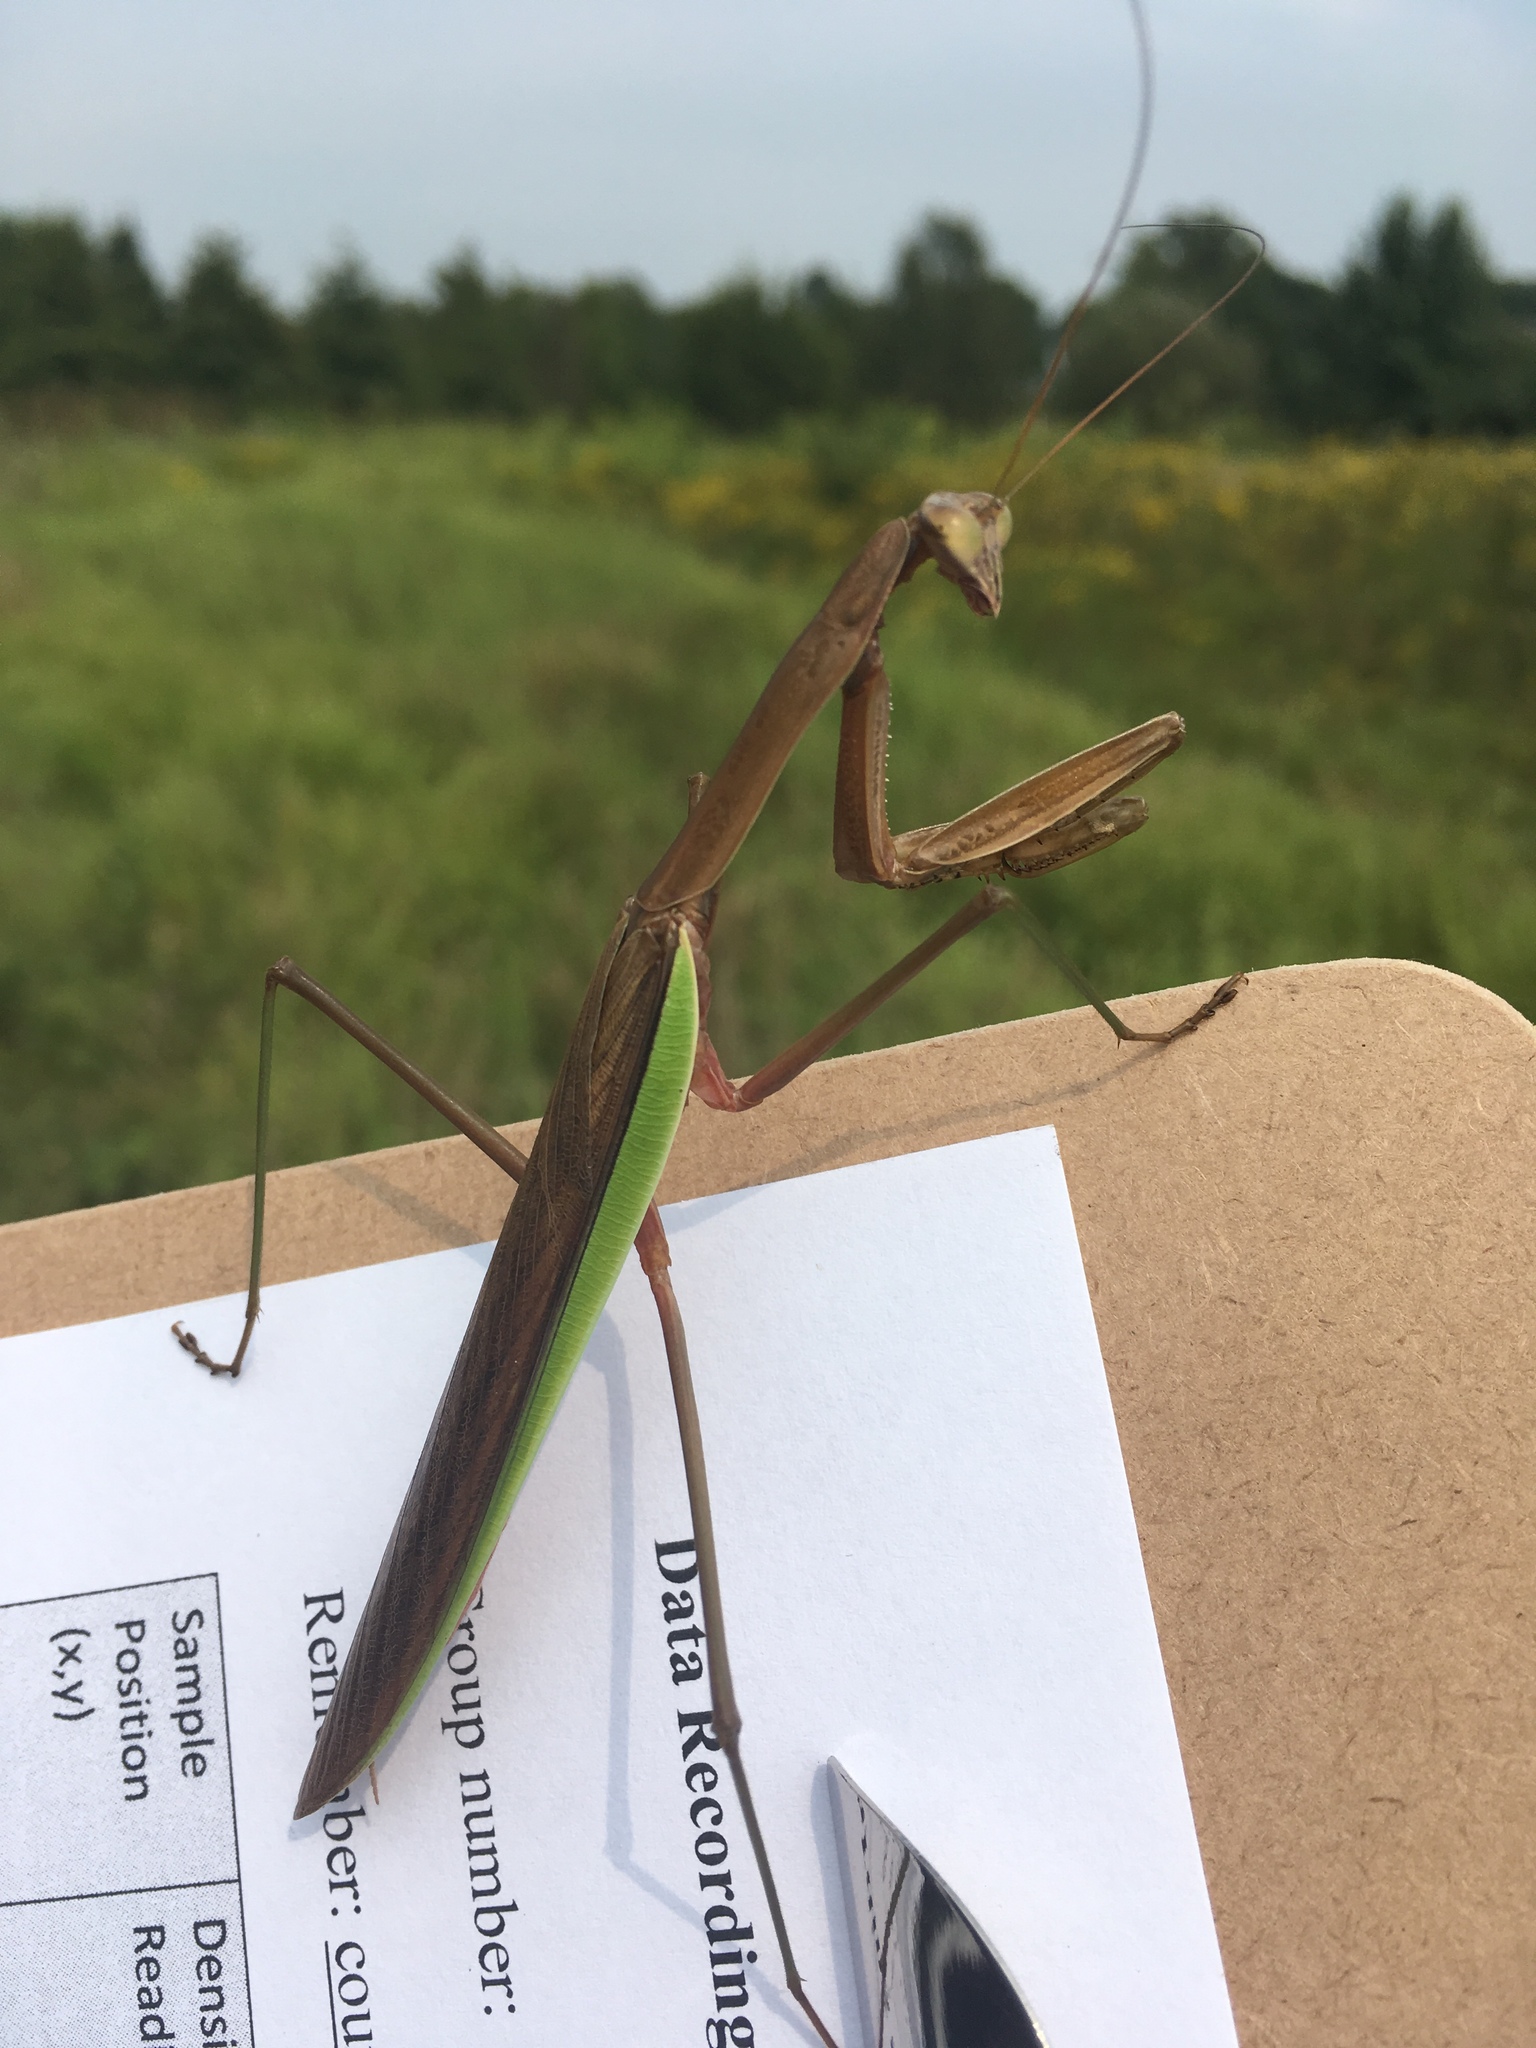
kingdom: Animalia
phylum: Arthropoda
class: Insecta
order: Mantodea
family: Mantidae
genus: Tenodera
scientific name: Tenodera sinensis
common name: Chinese mantis
